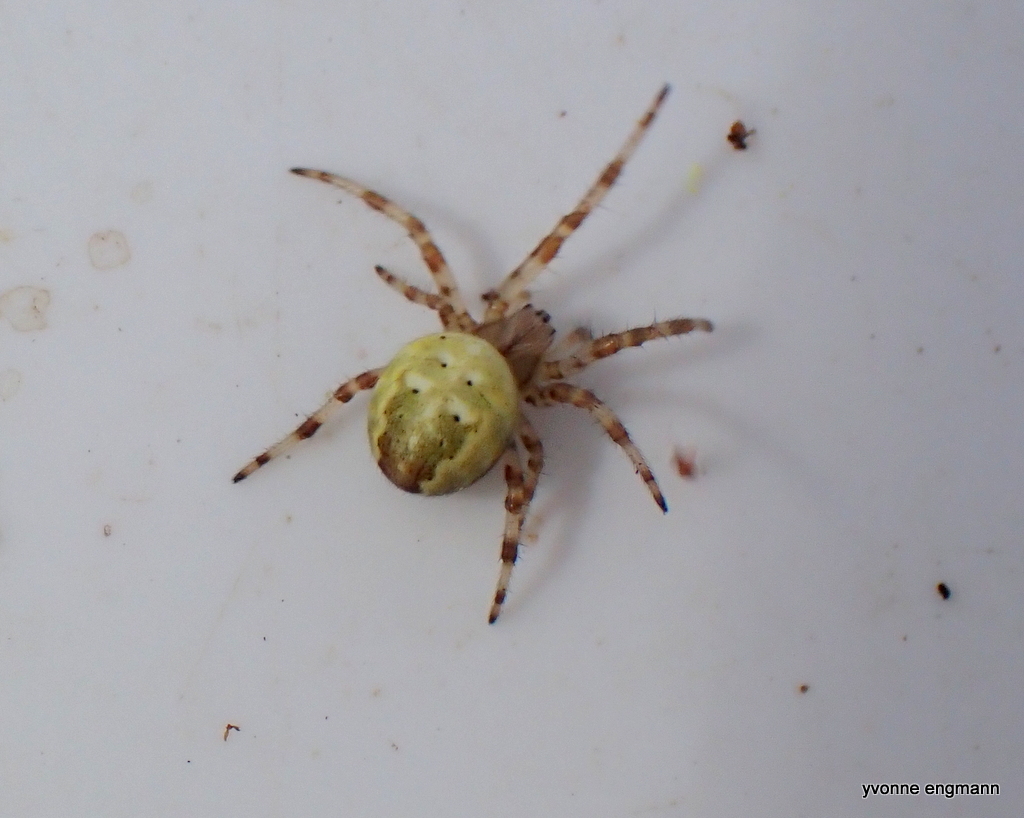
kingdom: Animalia
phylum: Arthropoda
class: Arachnida
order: Araneae
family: Araneidae
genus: Araneus
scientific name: Araneus quadratus
